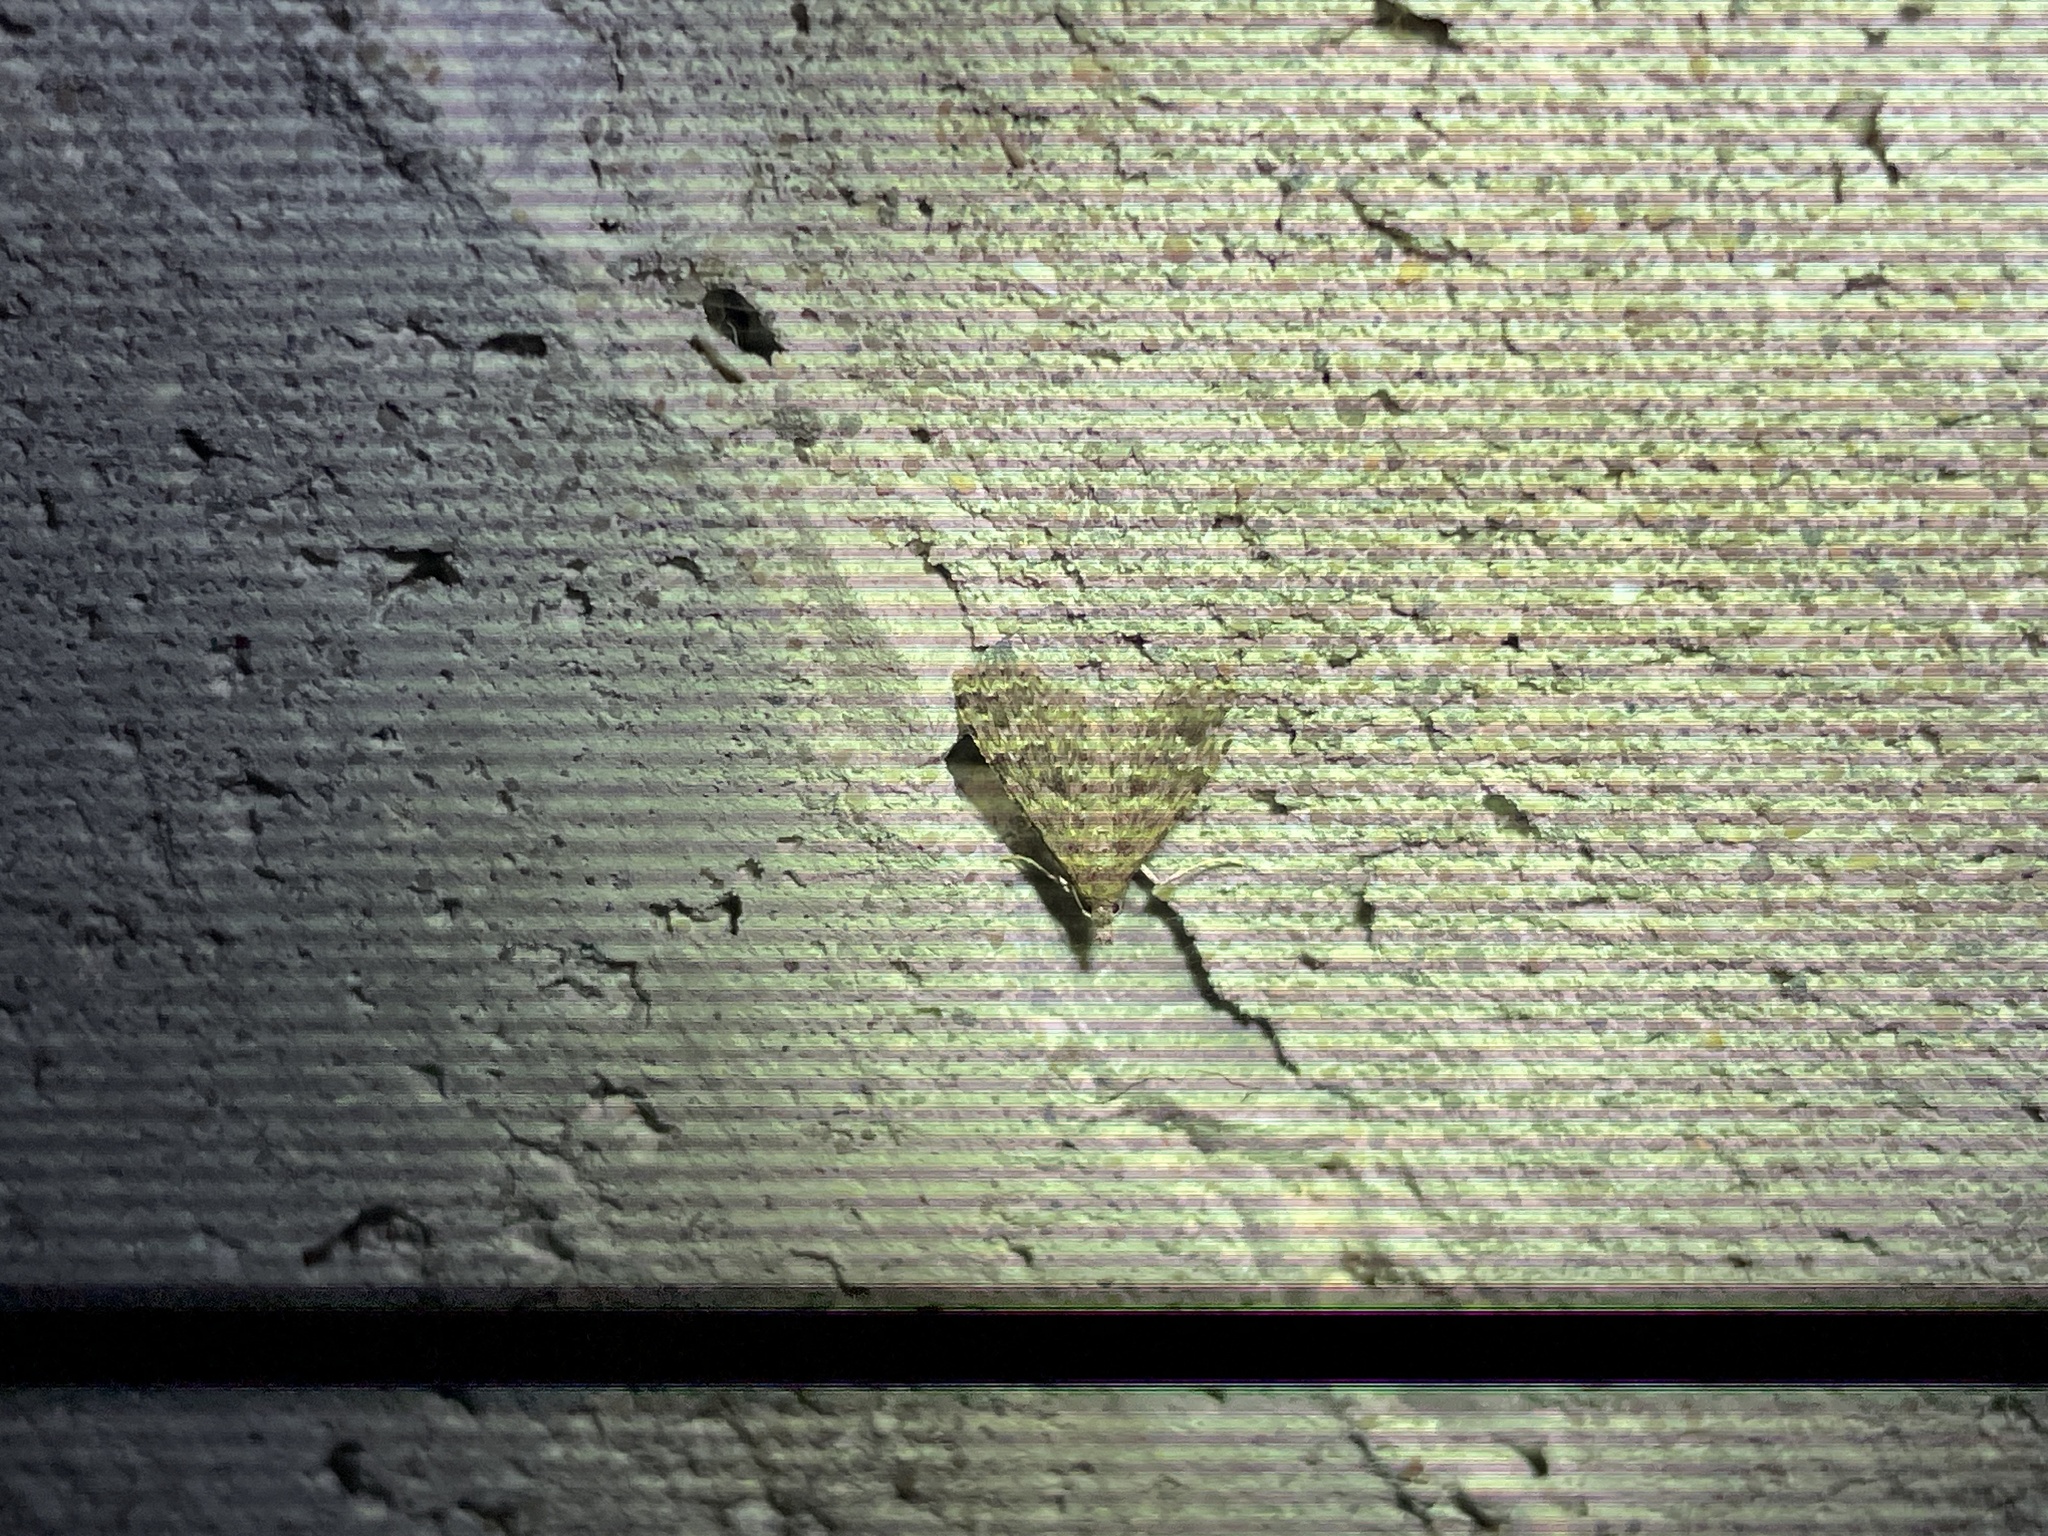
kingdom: Animalia
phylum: Arthropoda
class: Insecta
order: Lepidoptera
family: Alucitidae
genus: Alucita
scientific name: Alucita hexadactyla
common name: Twenty-plume moth
